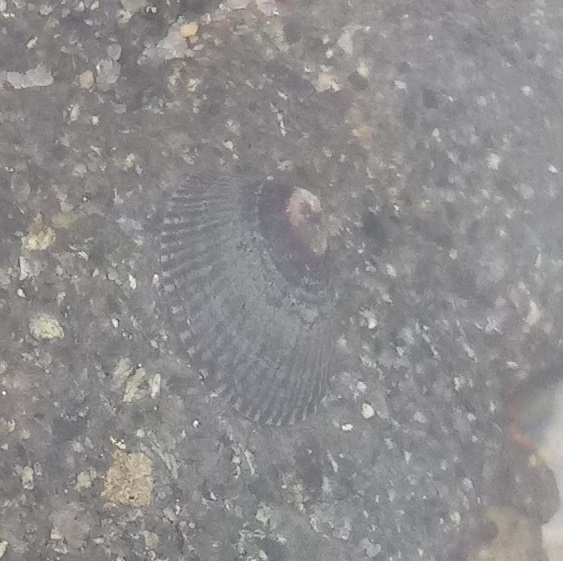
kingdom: Animalia
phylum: Mollusca
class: Gastropoda
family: Lottiidae
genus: Lottia
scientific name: Lottia fenestrata
